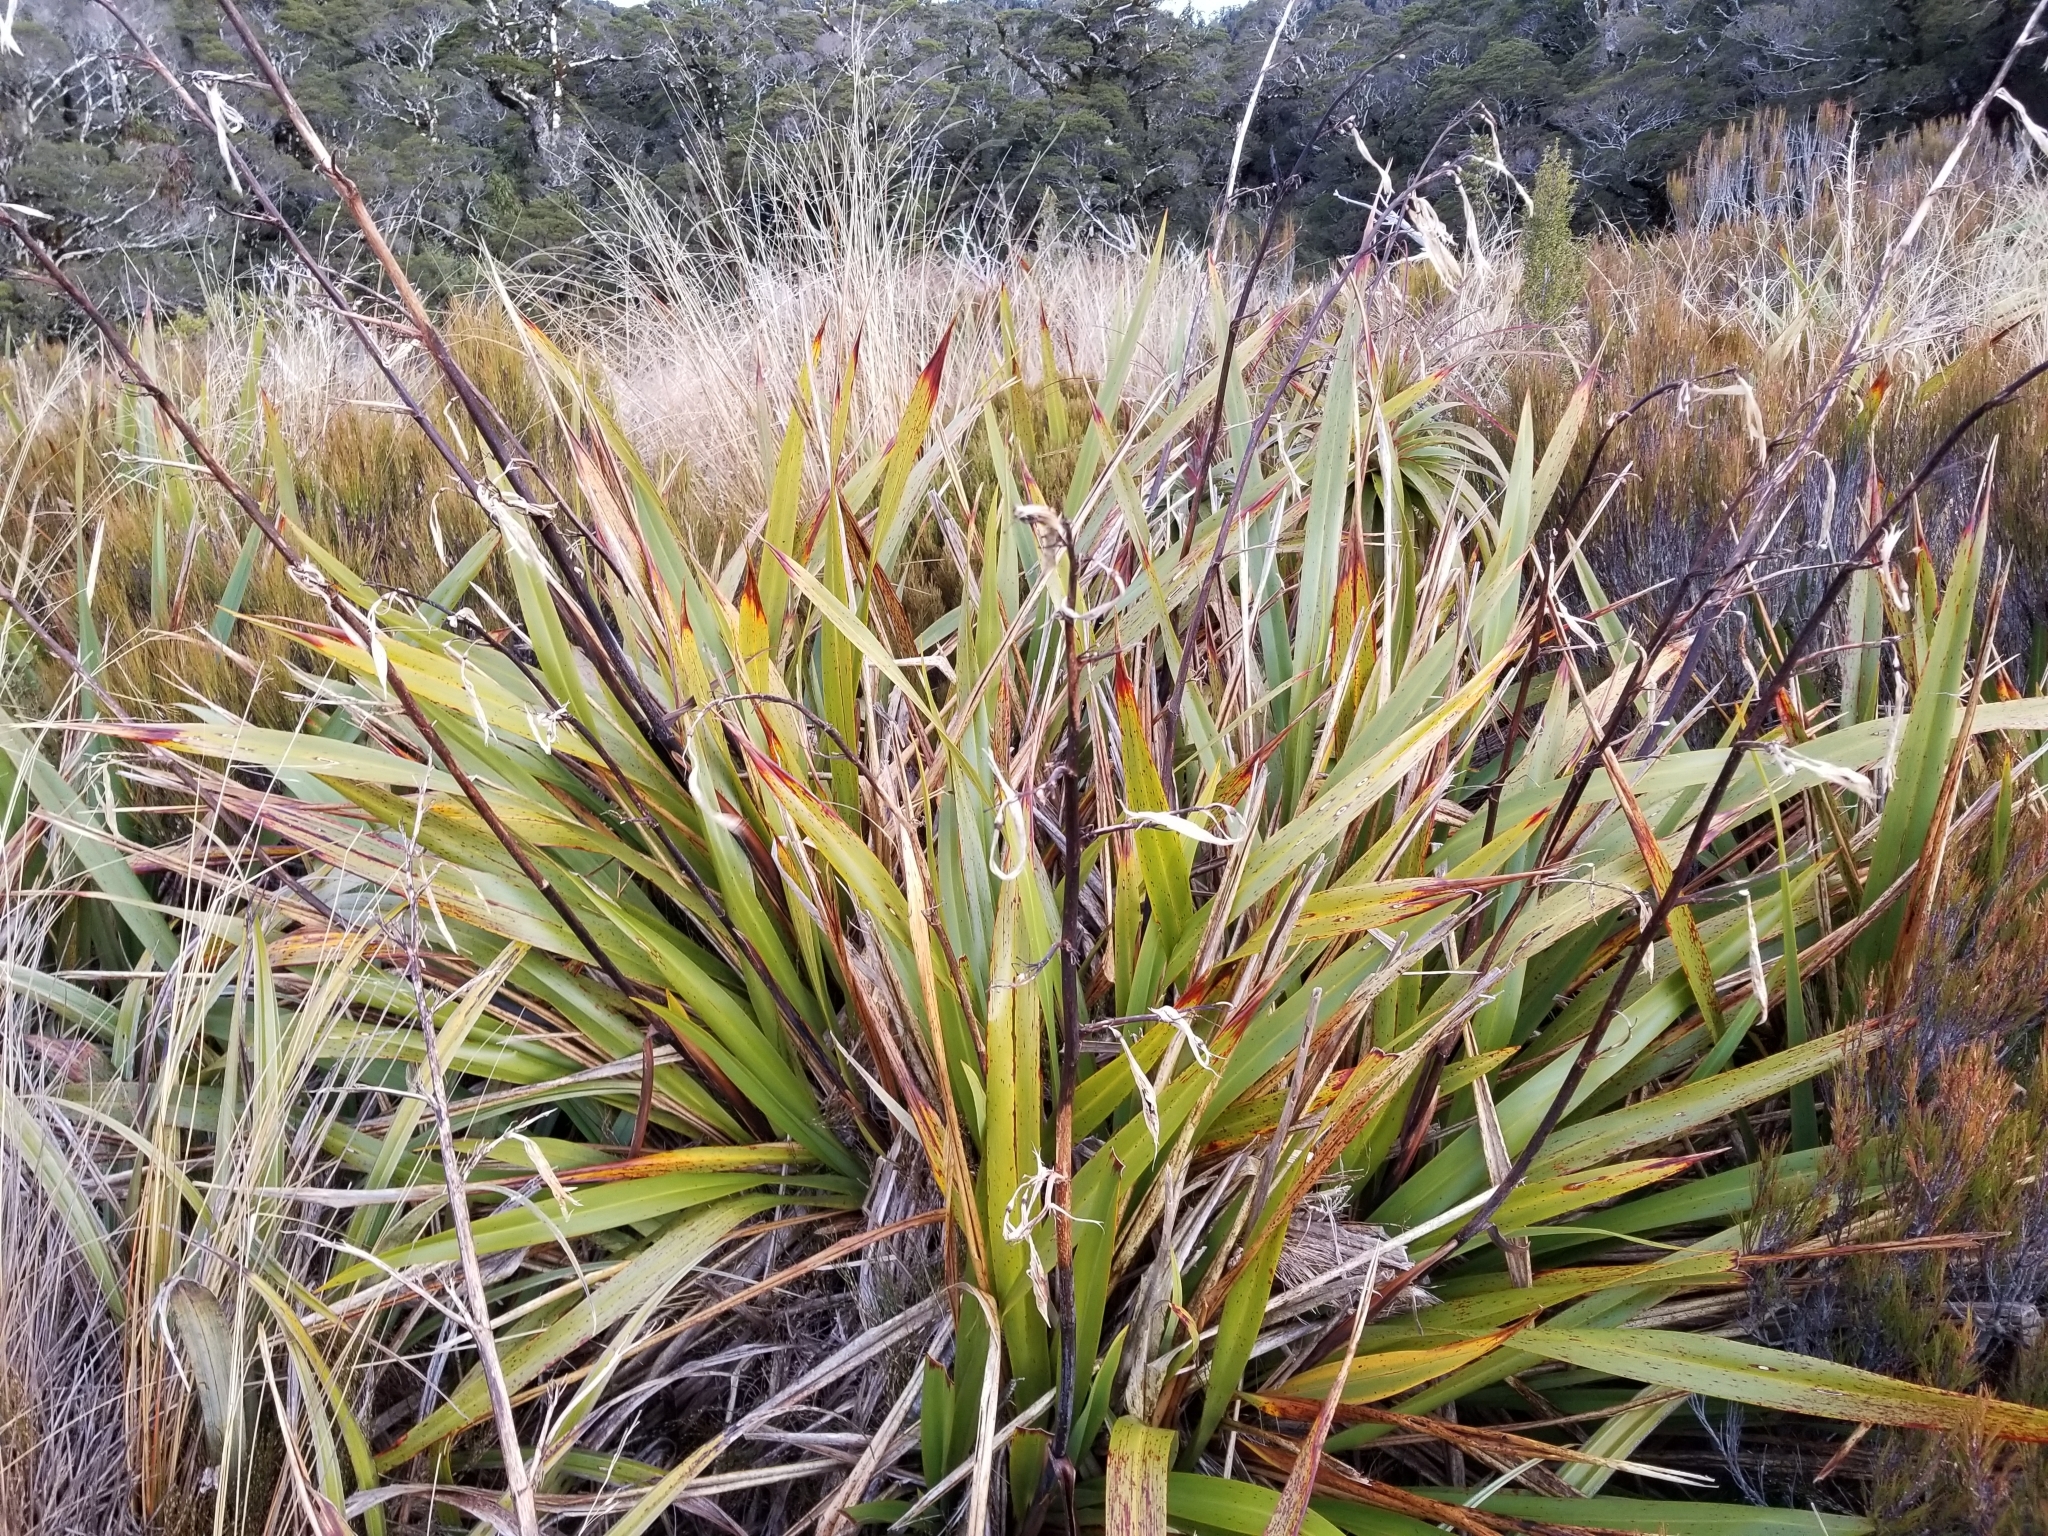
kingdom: Plantae
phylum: Tracheophyta
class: Liliopsida
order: Asparagales
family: Asphodelaceae
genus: Phormium
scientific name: Phormium colensoi
